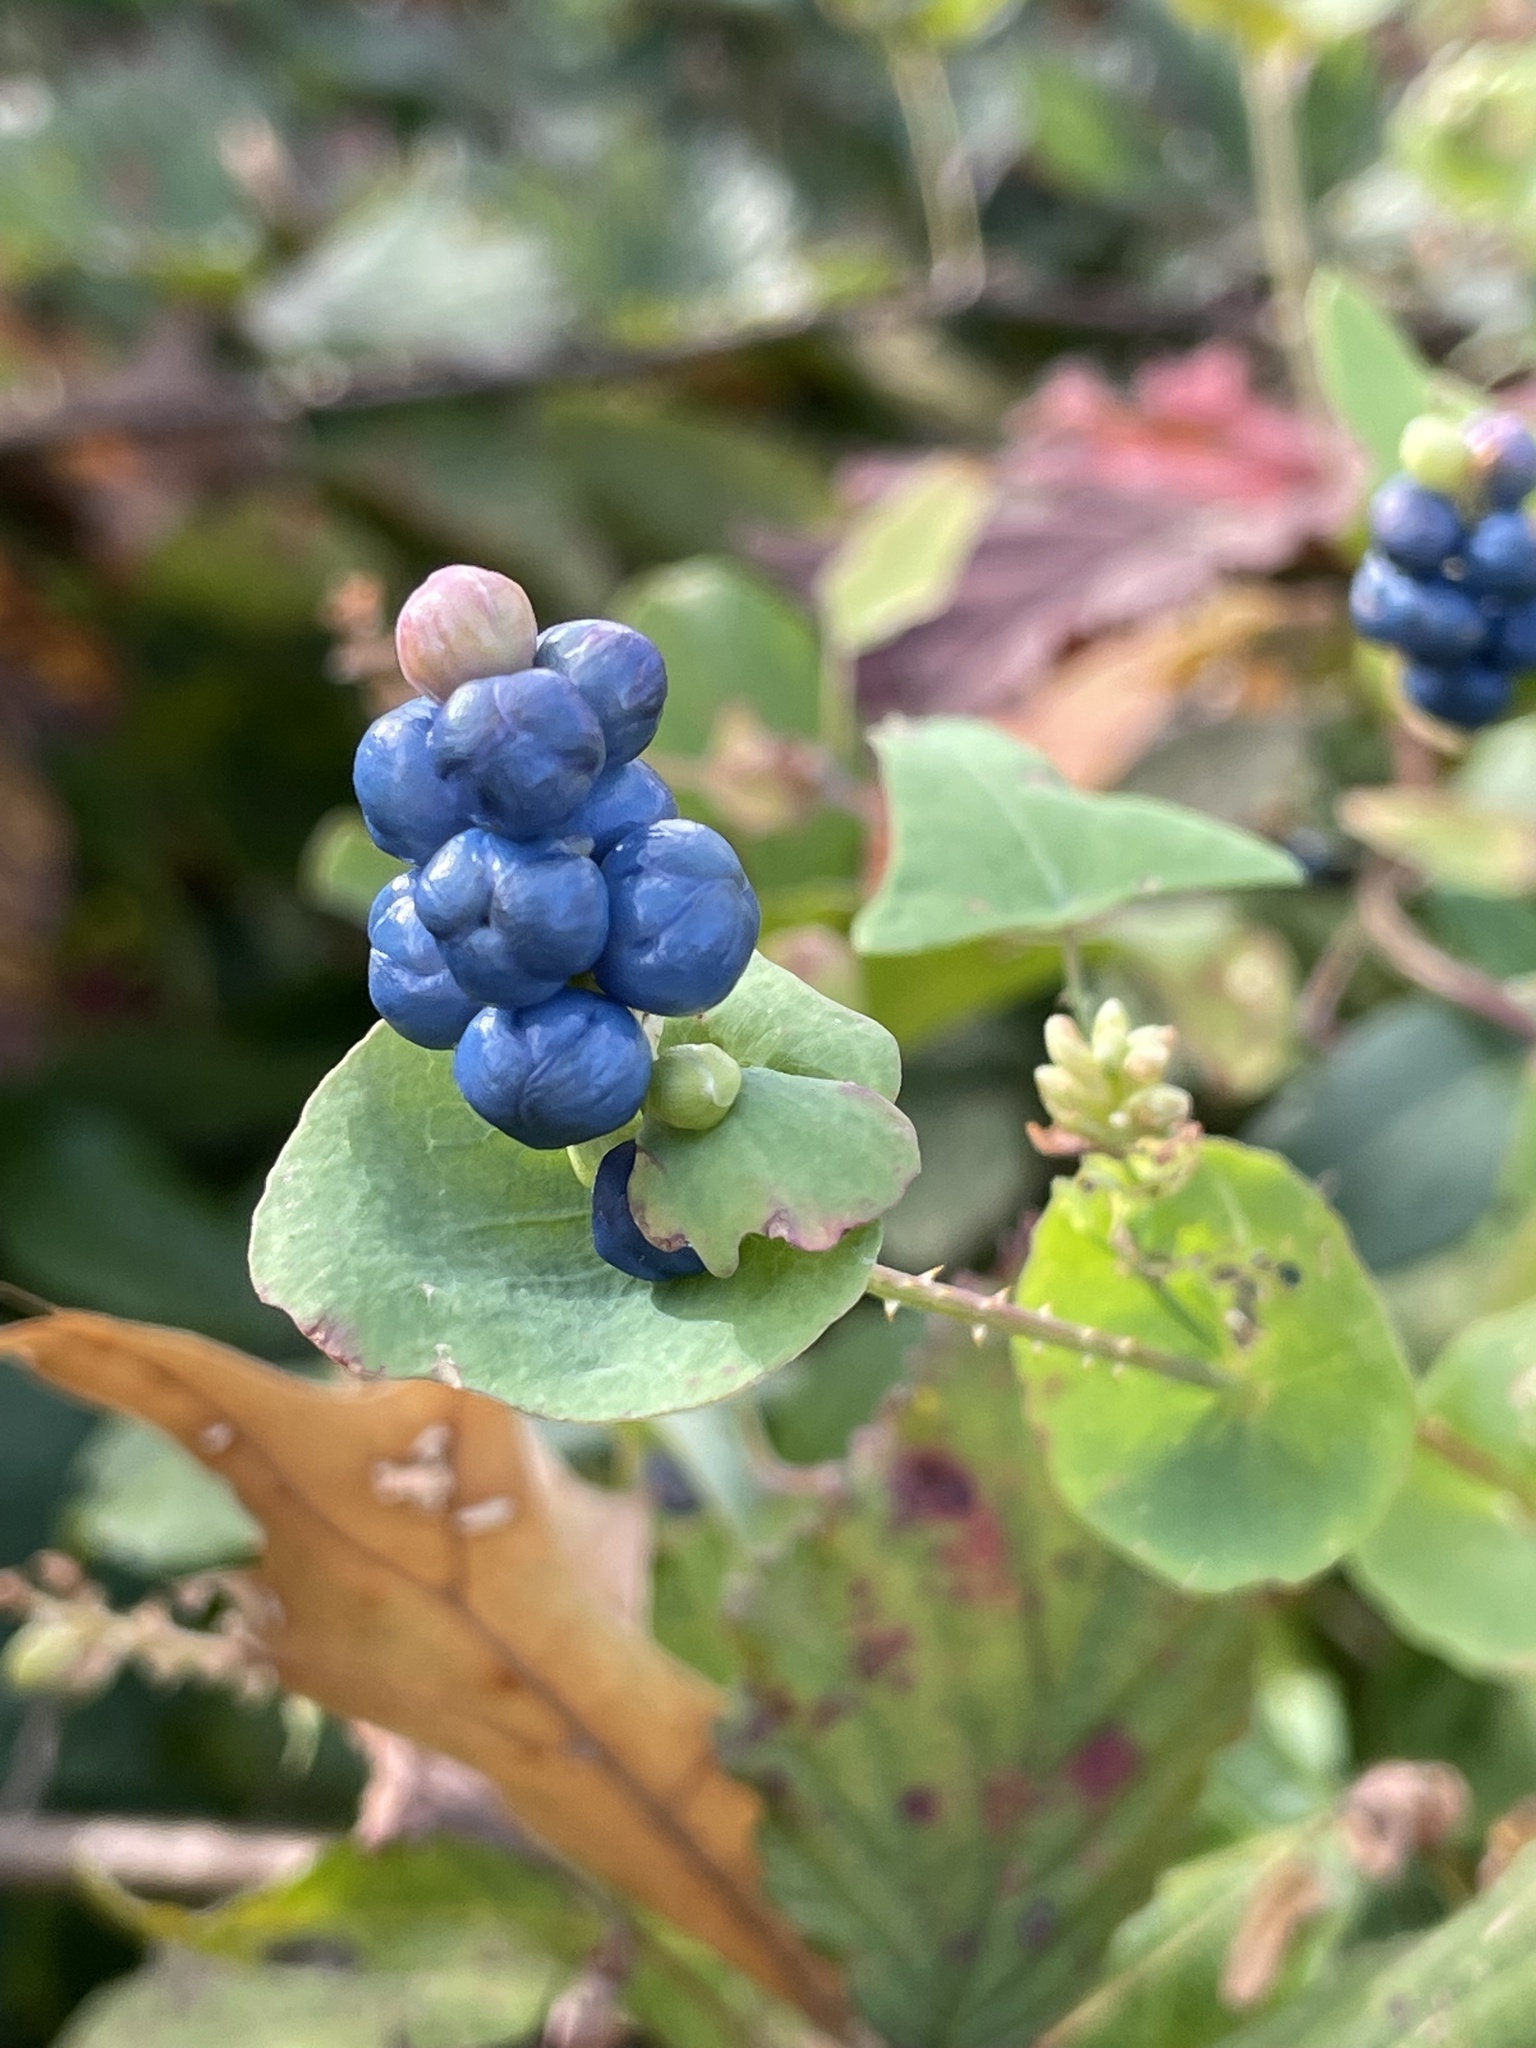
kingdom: Plantae
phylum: Tracheophyta
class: Magnoliopsida
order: Caryophyllales
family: Polygonaceae
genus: Persicaria
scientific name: Persicaria perfoliata
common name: Asiatic tearthumb
